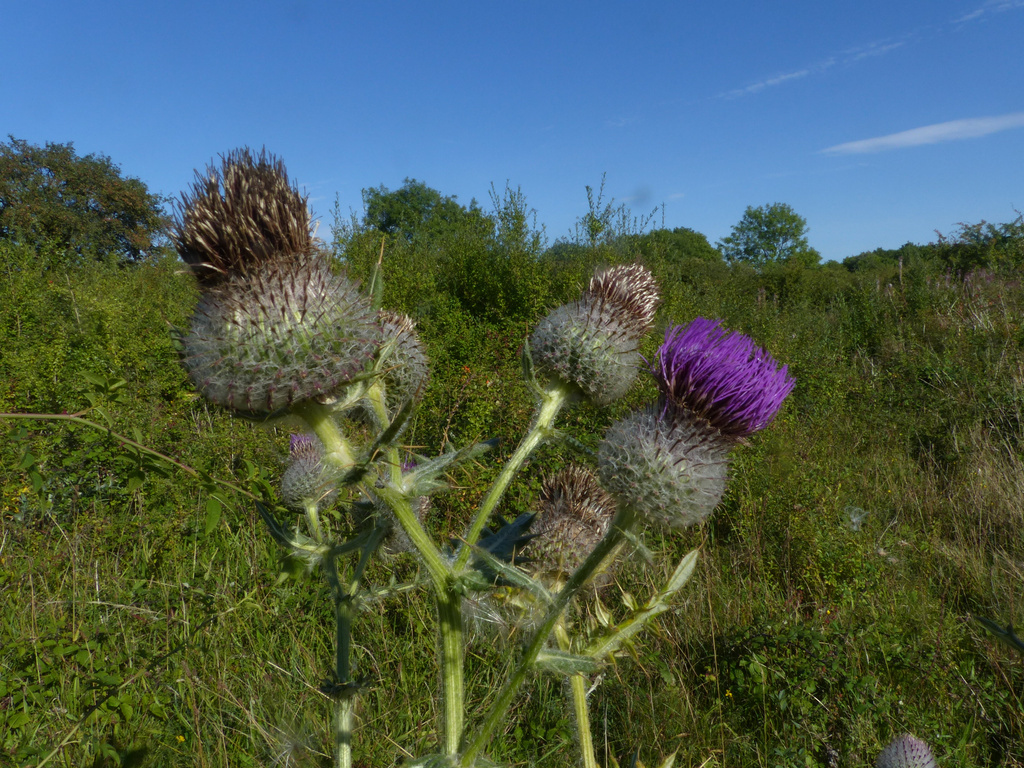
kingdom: Plantae
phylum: Tracheophyta
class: Magnoliopsida
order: Asterales
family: Asteraceae
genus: Lophiolepis
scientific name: Lophiolepis eriophora
